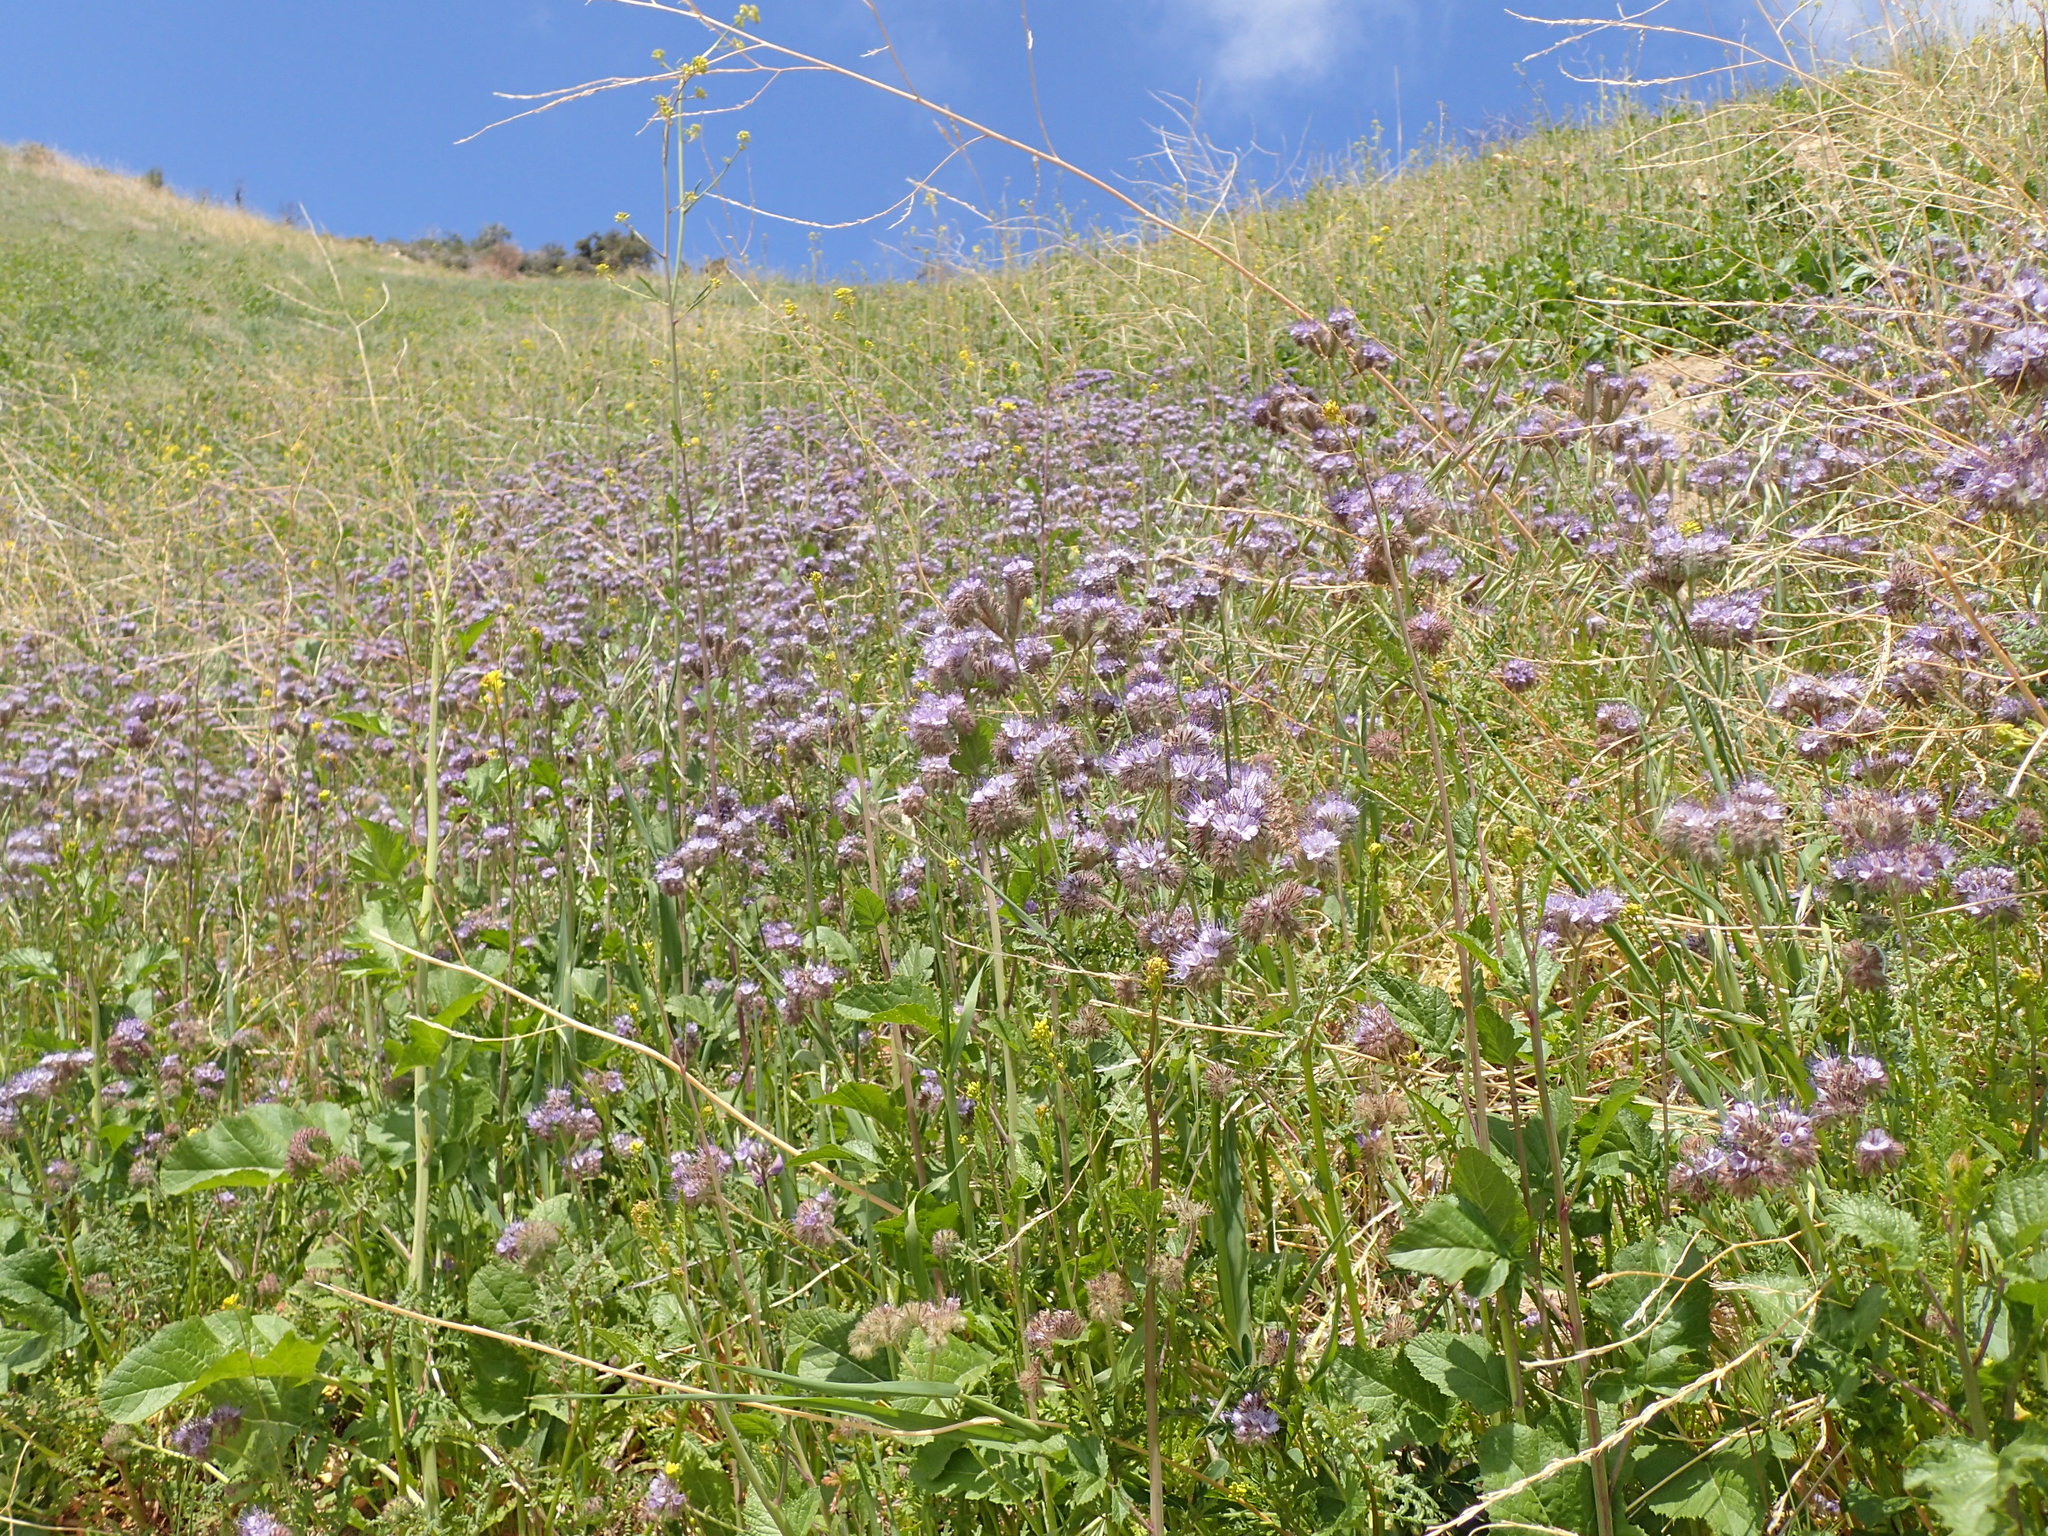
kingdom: Plantae
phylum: Tracheophyta
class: Magnoliopsida
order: Boraginales
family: Hydrophyllaceae
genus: Phacelia
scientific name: Phacelia tanacetifolia
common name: Phacelia
